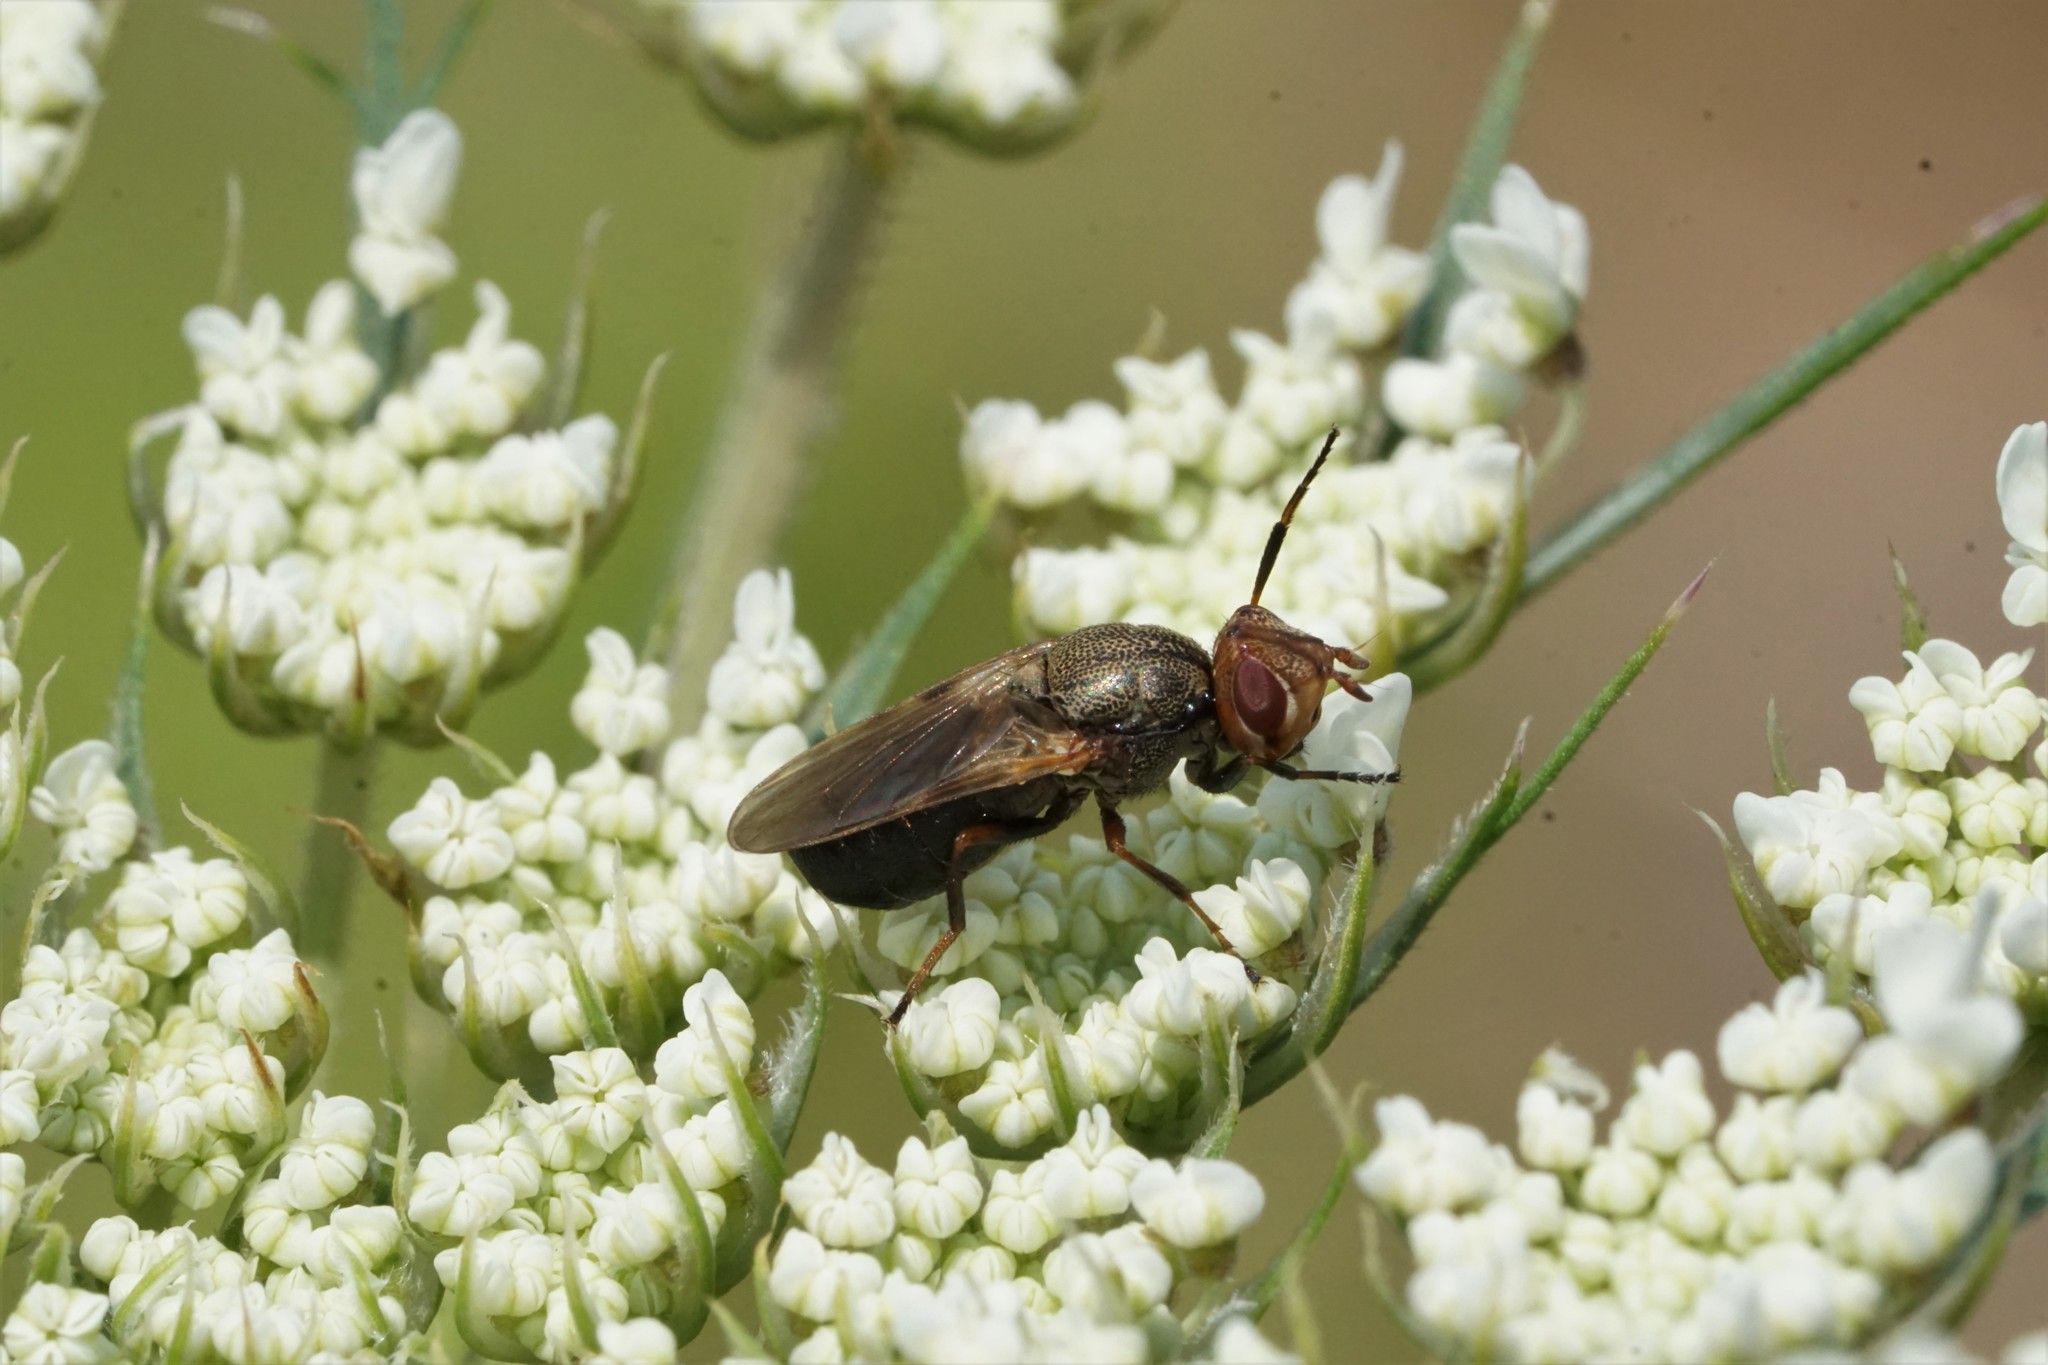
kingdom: Animalia
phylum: Arthropoda
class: Insecta
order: Diptera
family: Ulidiidae
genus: Tetanops
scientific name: Tetanops luridipennis
